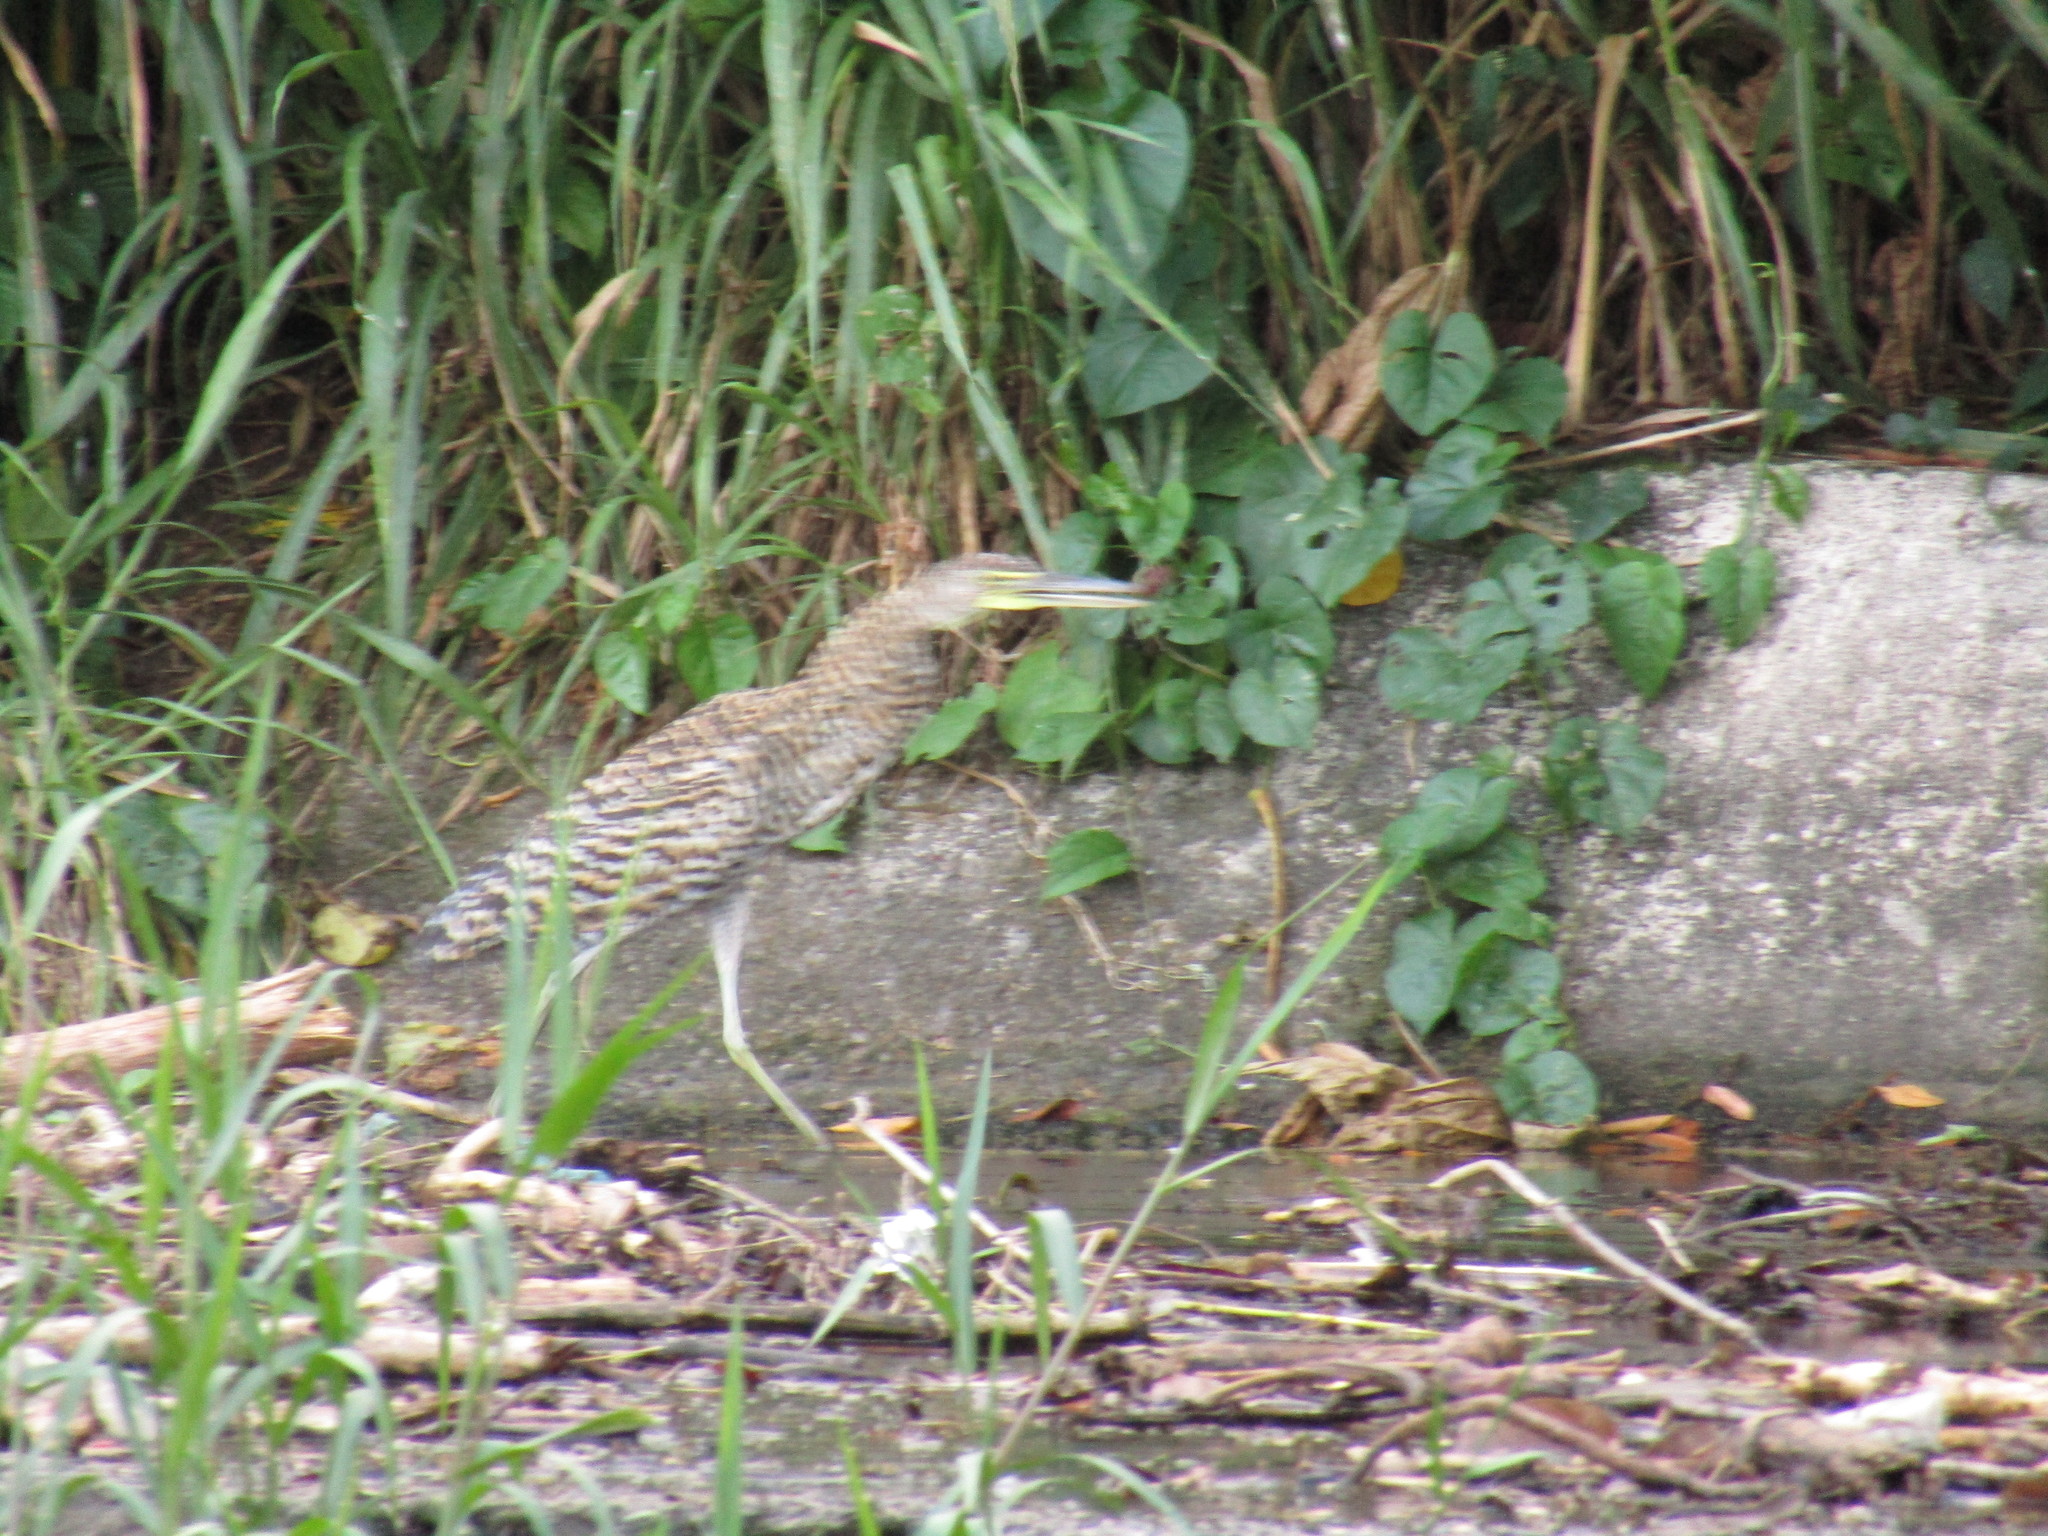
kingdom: Animalia
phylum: Chordata
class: Aves
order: Pelecaniformes
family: Ardeidae
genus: Tigrisoma
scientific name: Tigrisoma mexicanum
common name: Bare-throated tiger-heron
